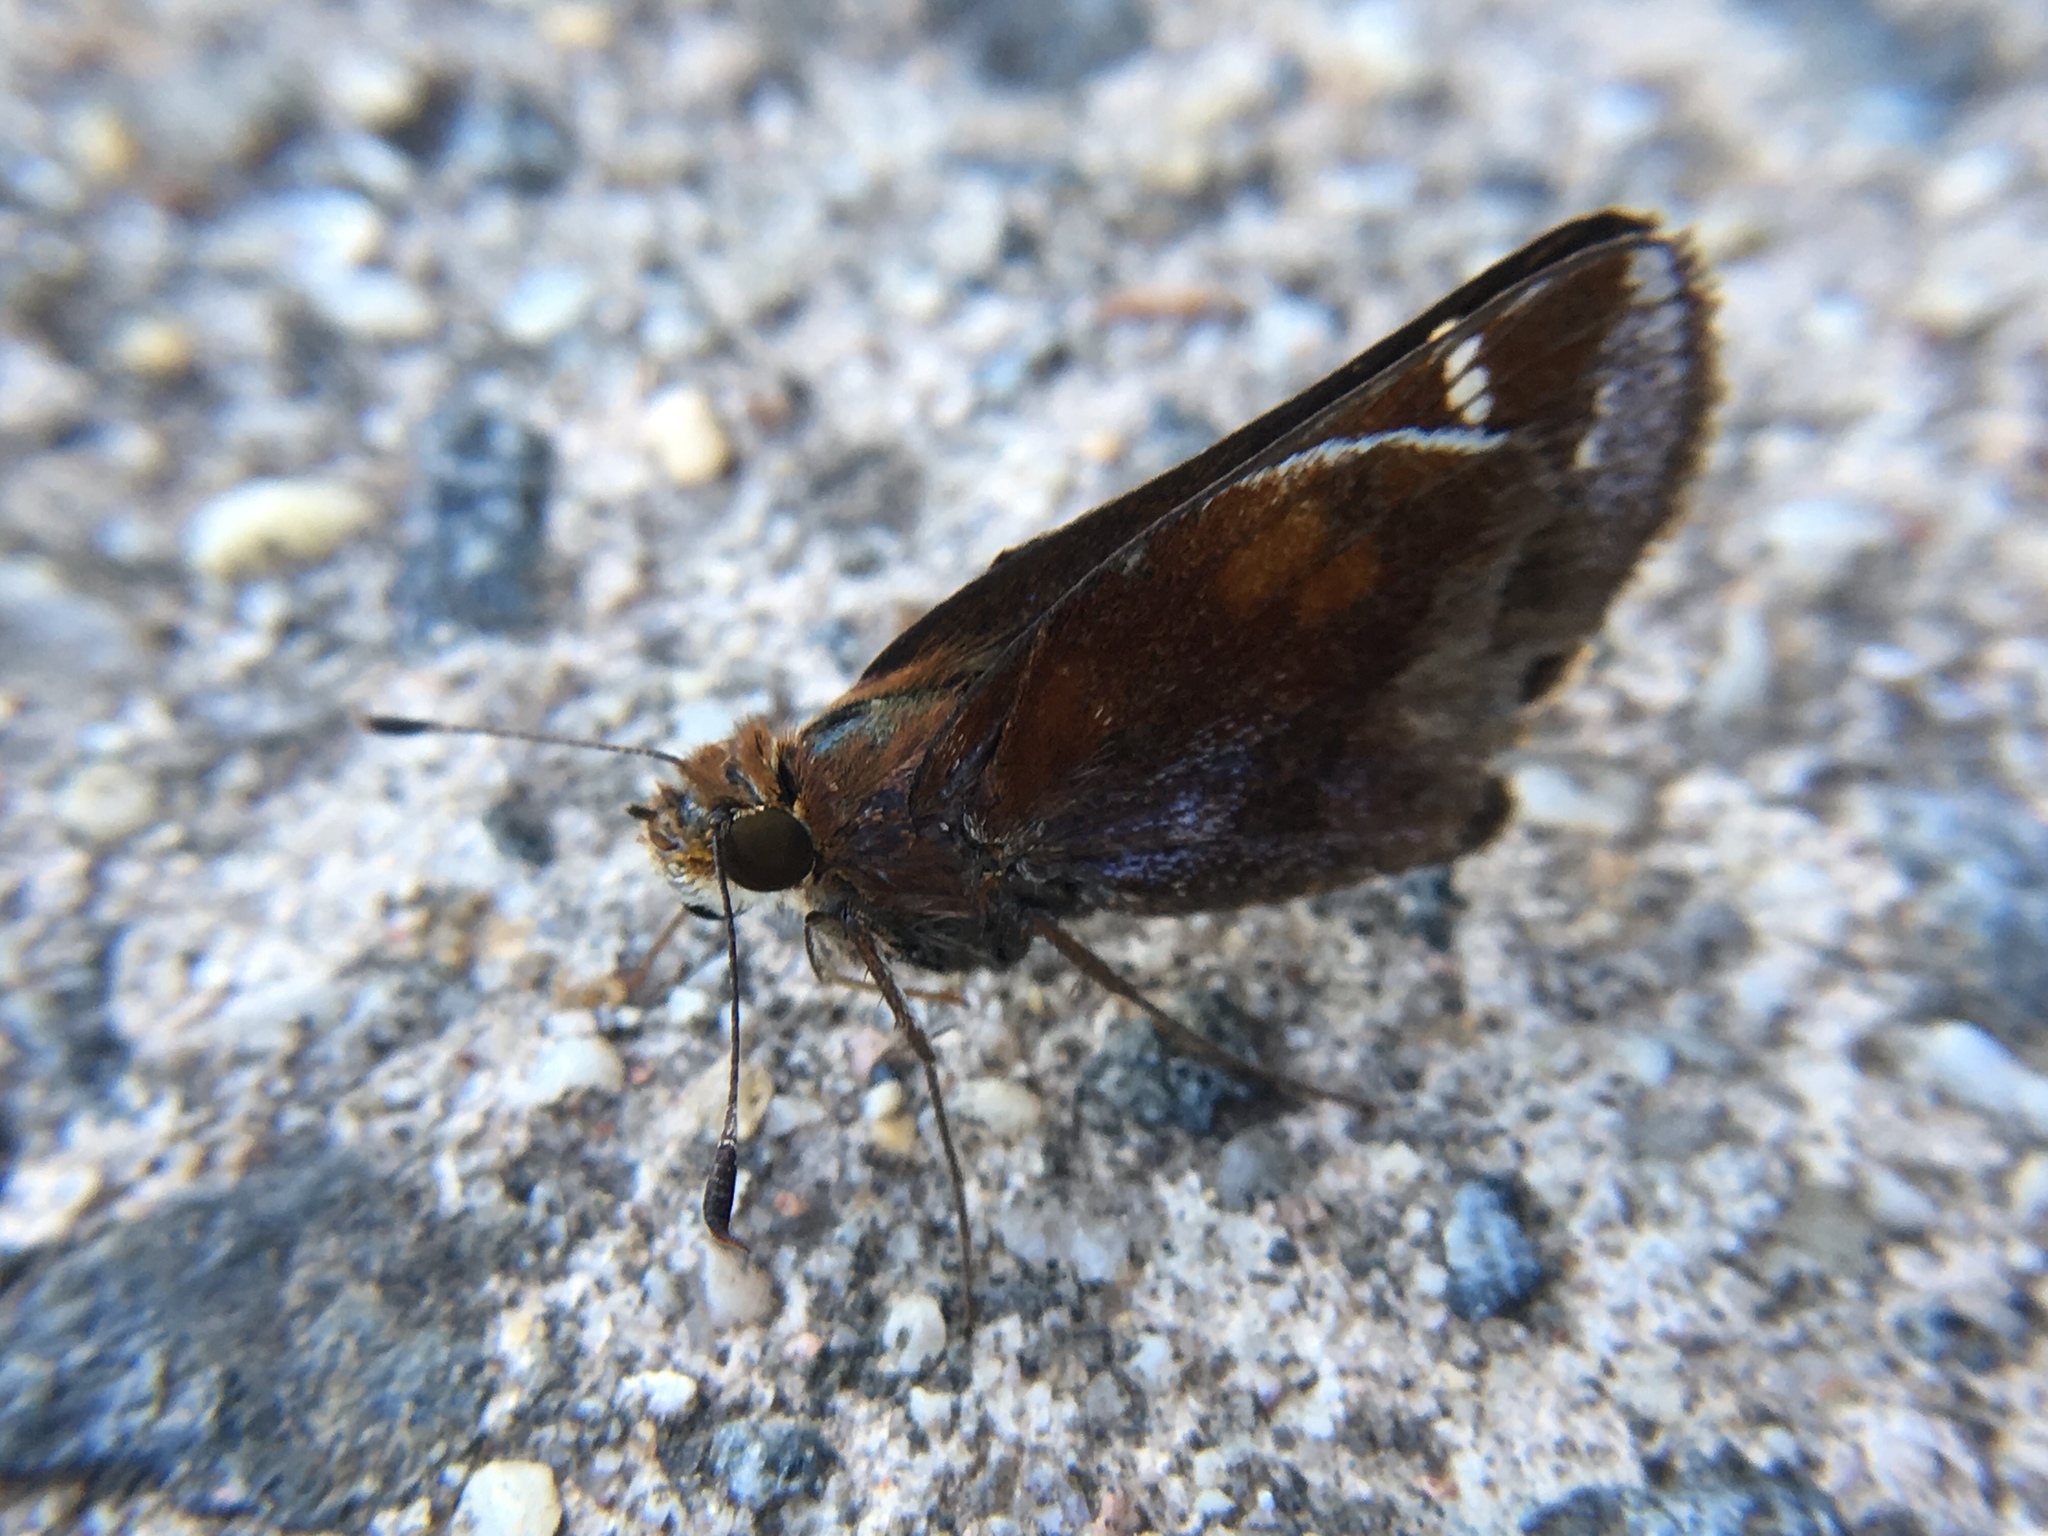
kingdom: Animalia
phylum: Arthropoda
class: Insecta
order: Lepidoptera
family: Hesperiidae
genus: Lon
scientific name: Lon zabulon
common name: Zabulon skipper
